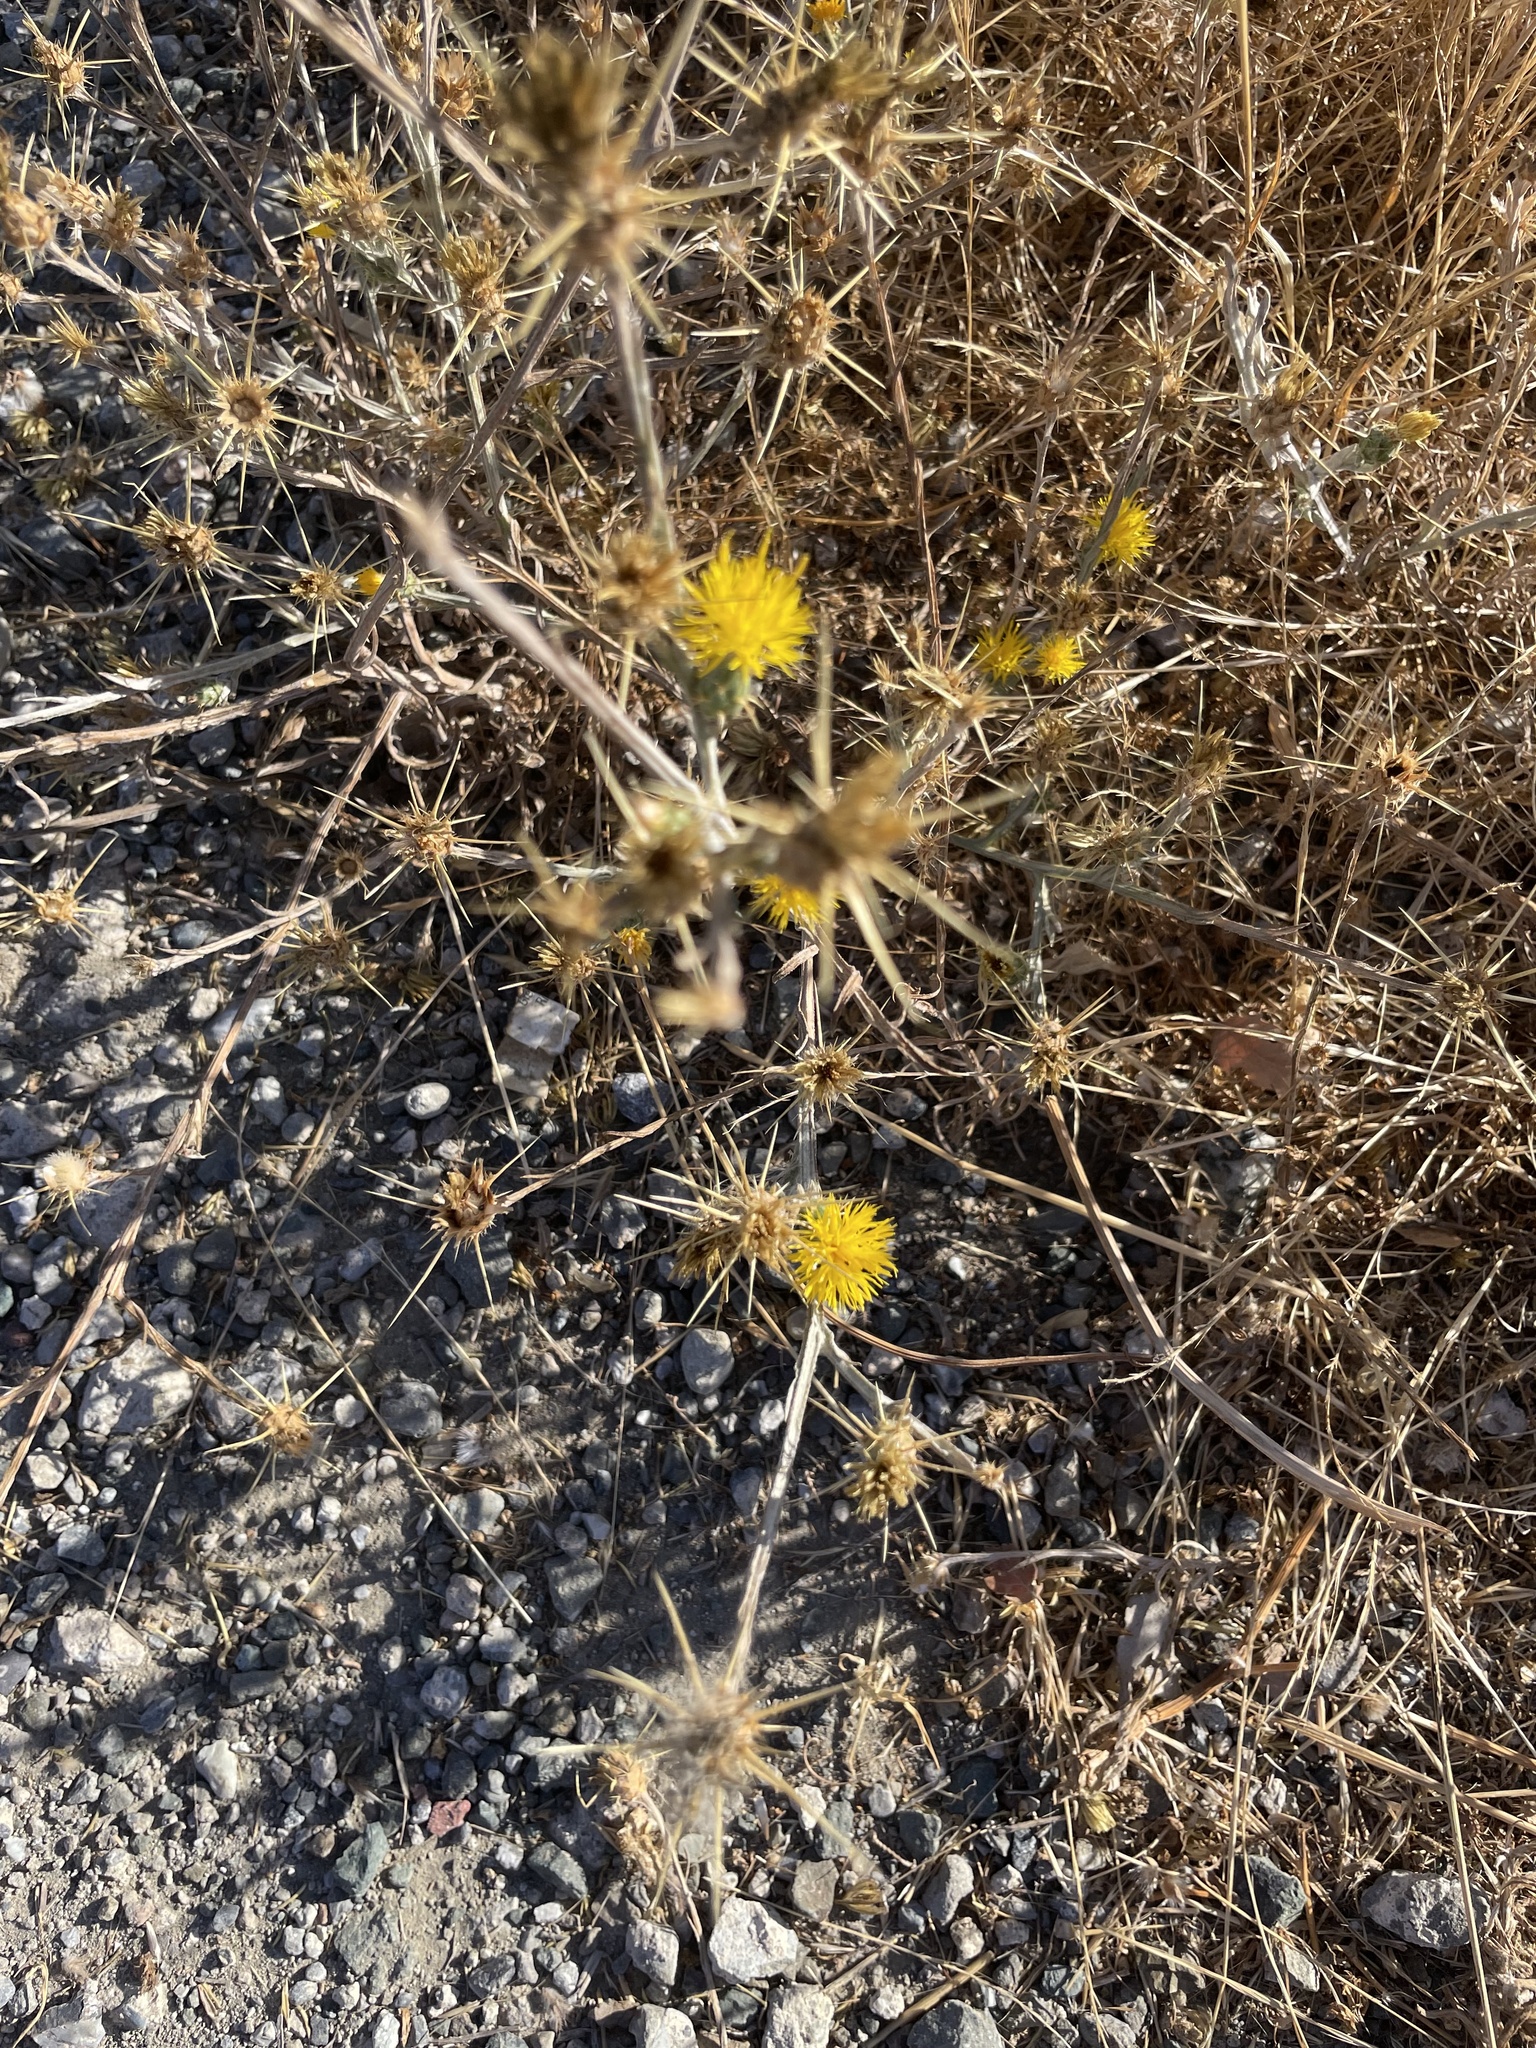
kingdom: Plantae
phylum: Tracheophyta
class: Magnoliopsida
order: Asterales
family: Asteraceae
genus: Centaurea
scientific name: Centaurea solstitialis
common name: Yellow star-thistle
